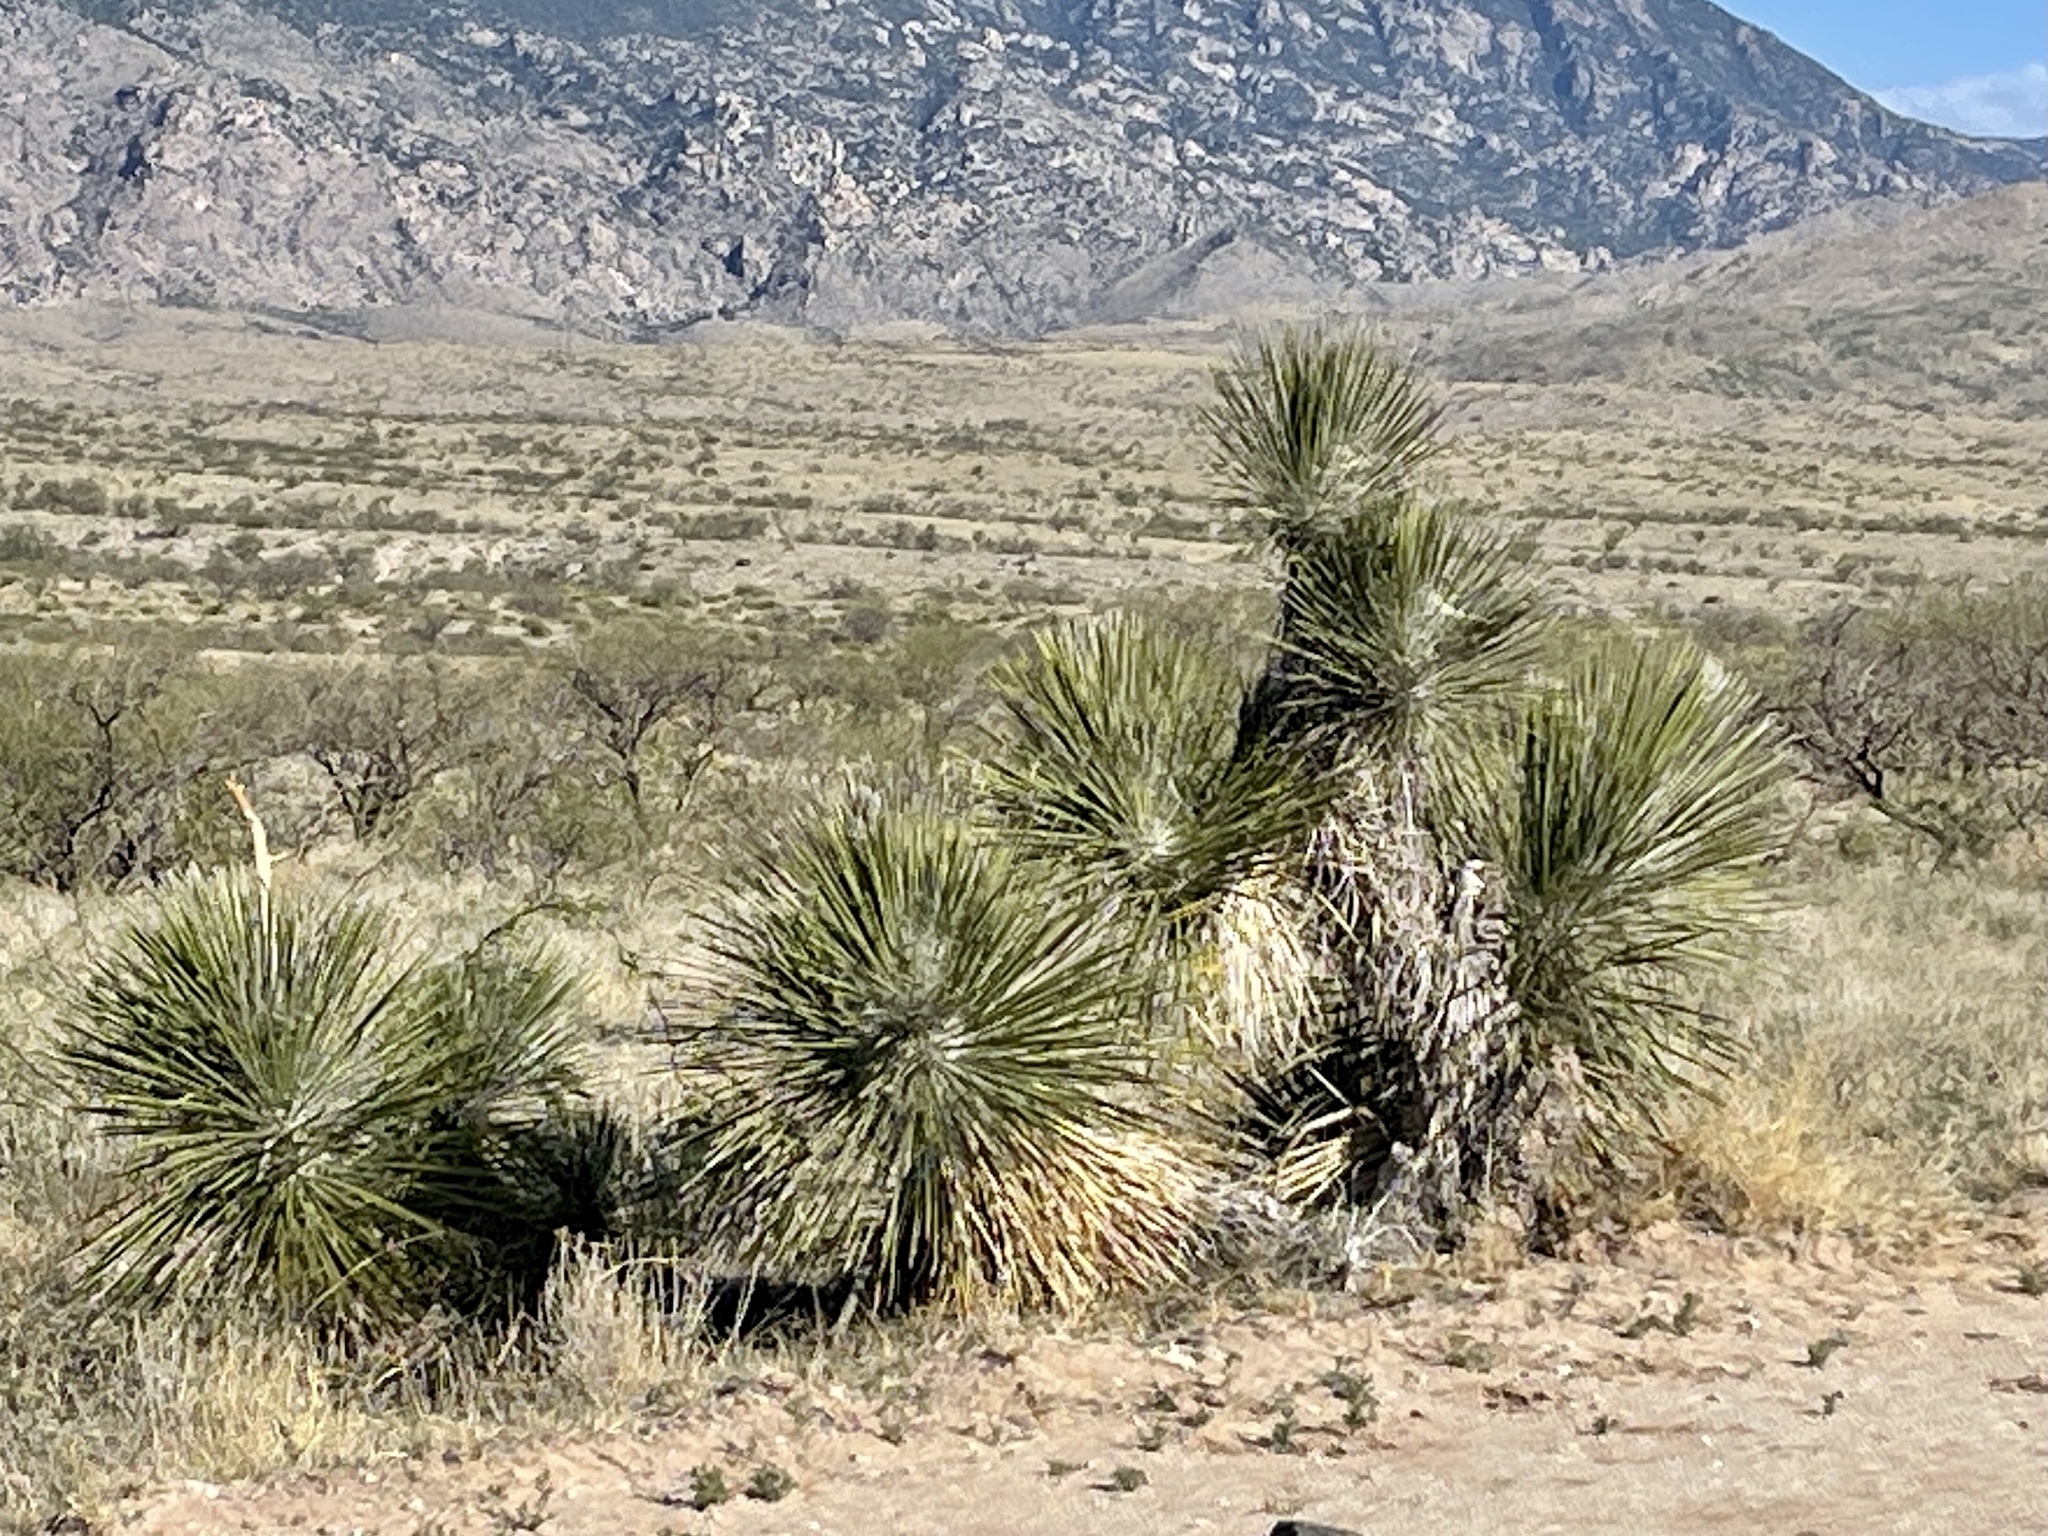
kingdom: Plantae
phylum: Tracheophyta
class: Liliopsida
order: Asparagales
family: Asparagaceae
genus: Yucca
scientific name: Yucca elata
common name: Palmella
